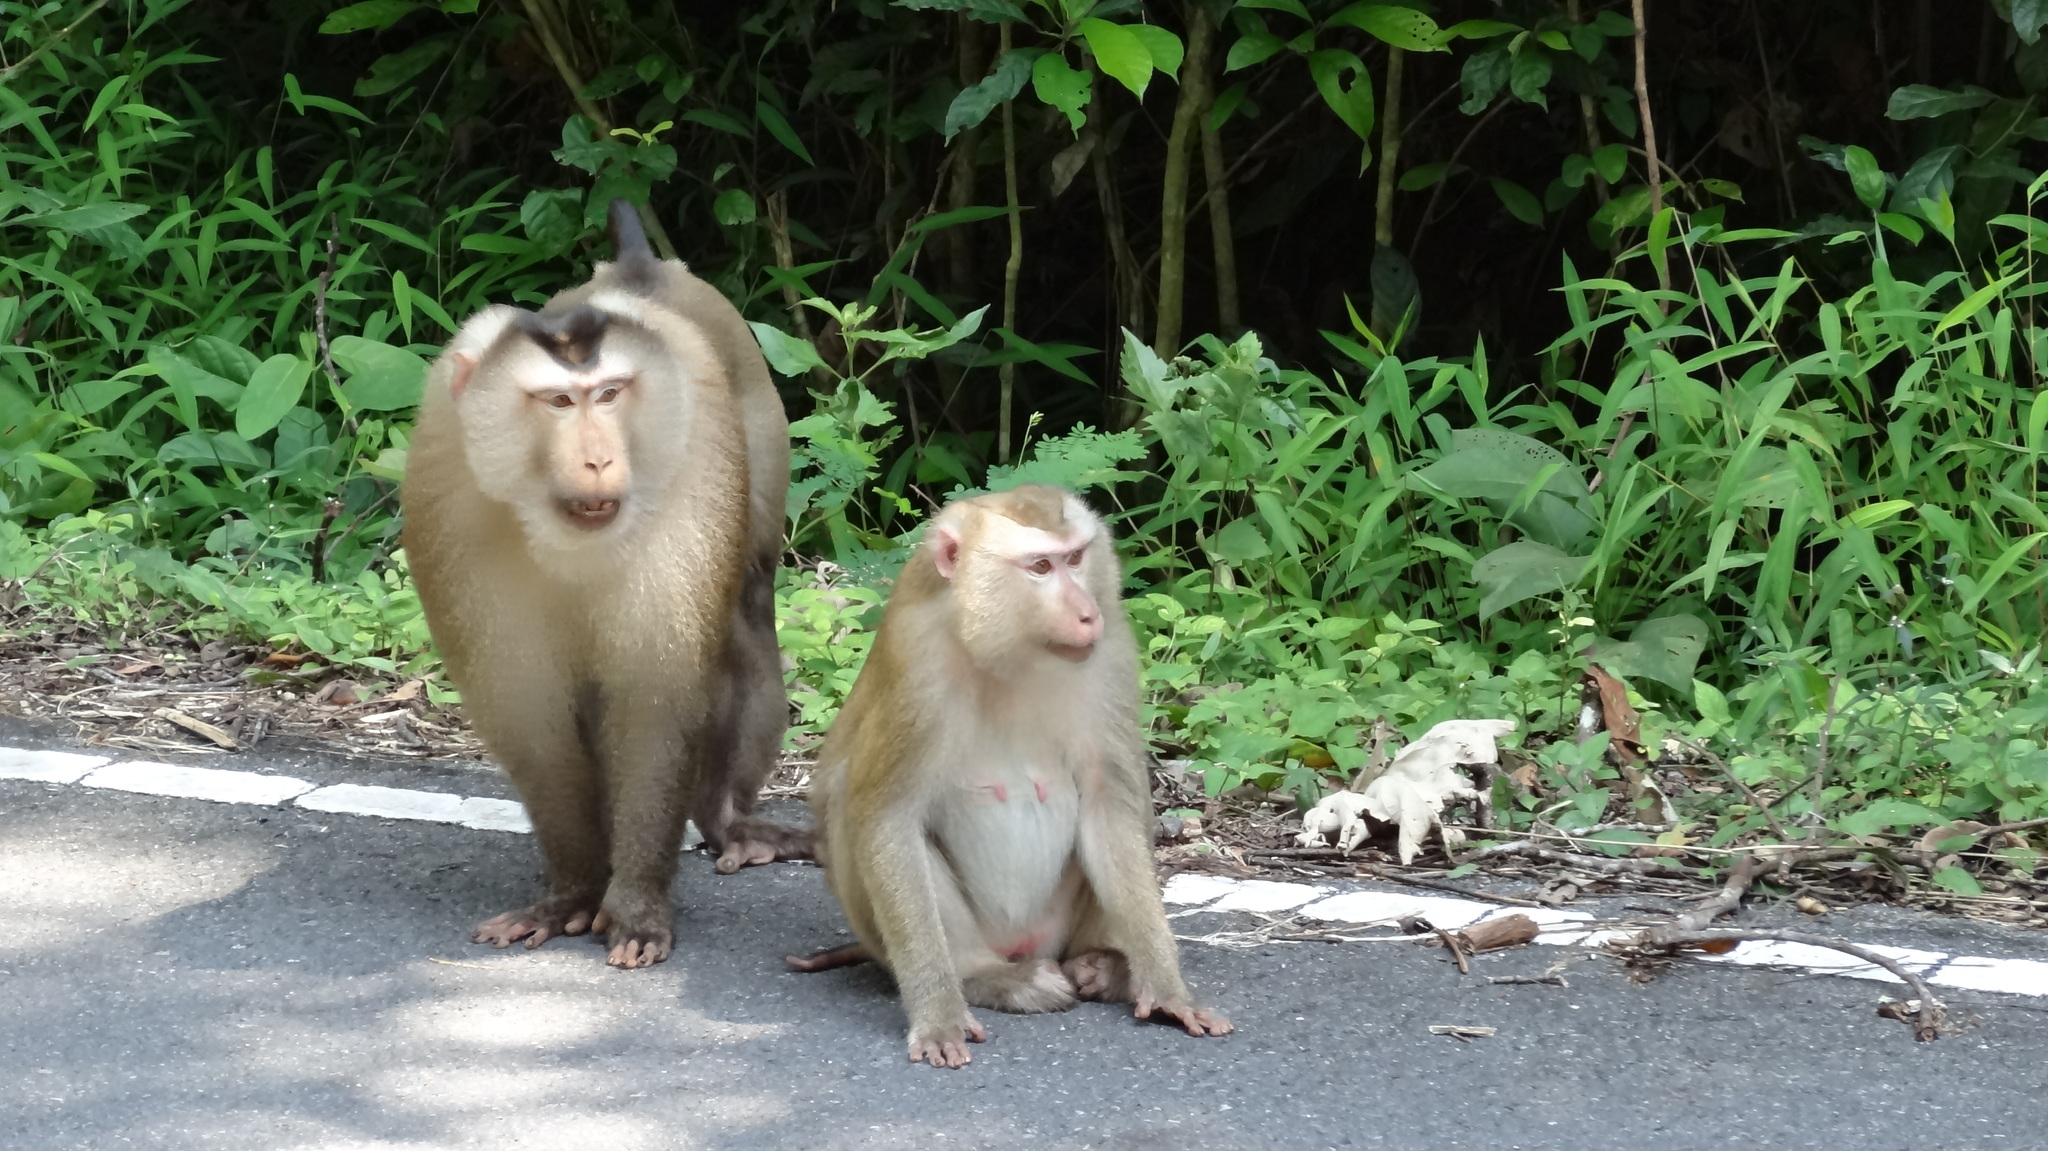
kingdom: Animalia
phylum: Chordata
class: Mammalia
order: Primates
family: Cercopithecidae
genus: Macaca
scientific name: Macaca leonina
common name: Northern pig-tailed macaque
